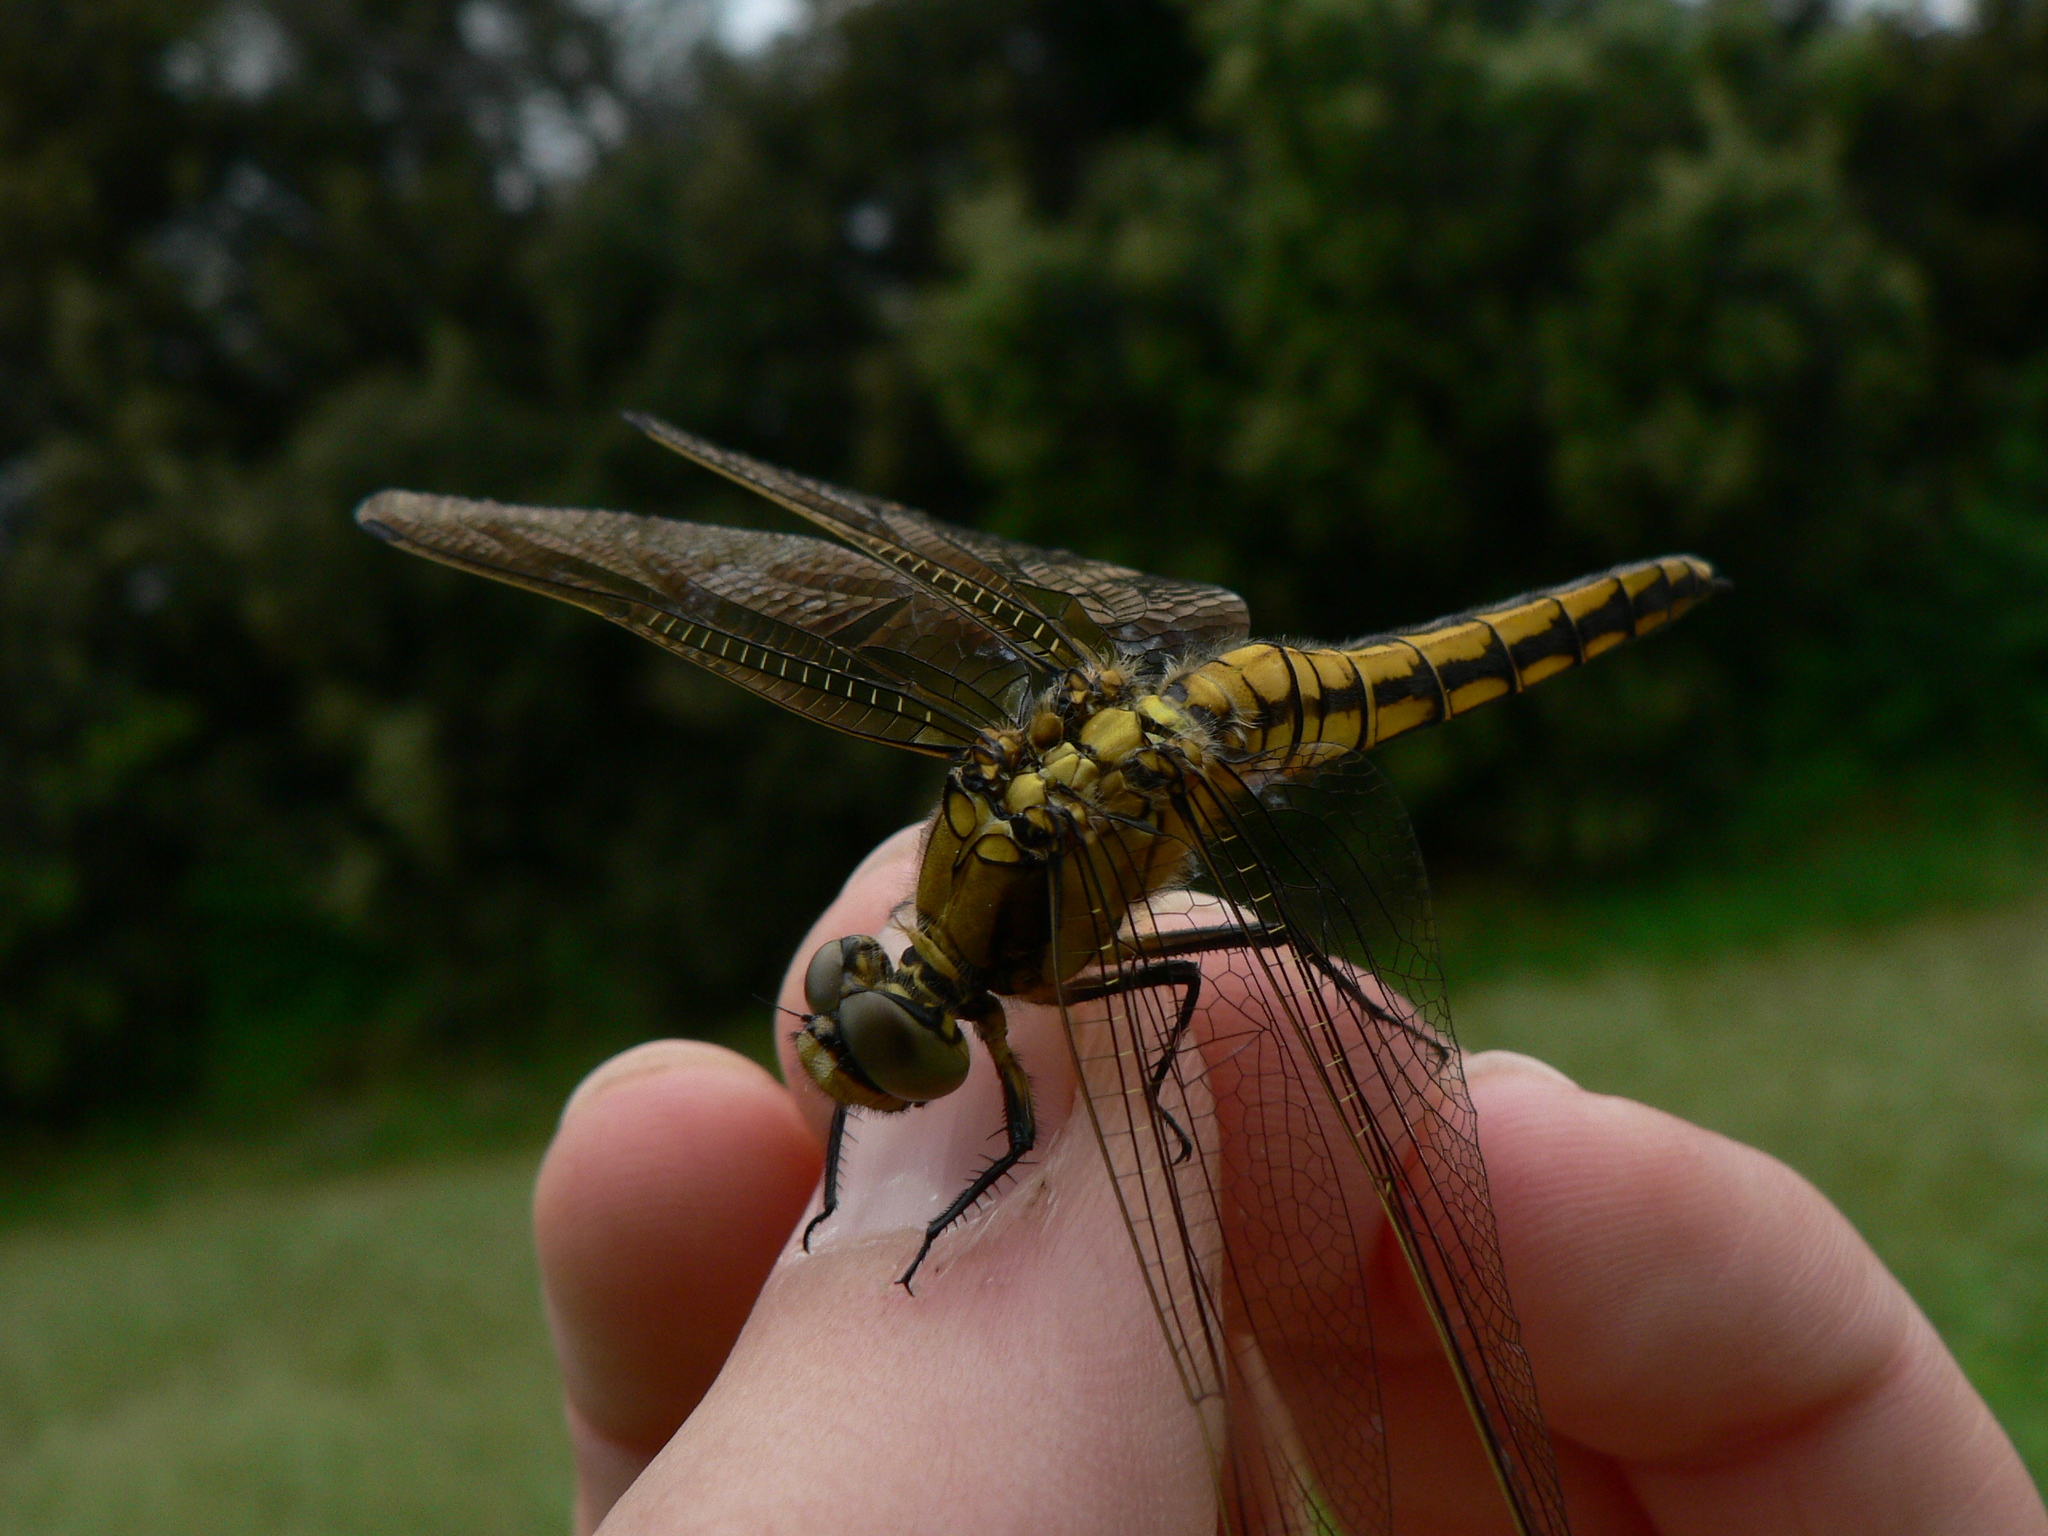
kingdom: Animalia
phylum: Arthropoda
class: Insecta
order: Odonata
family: Libellulidae
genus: Orthetrum
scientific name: Orthetrum cancellatum
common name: Black-tailed skimmer
